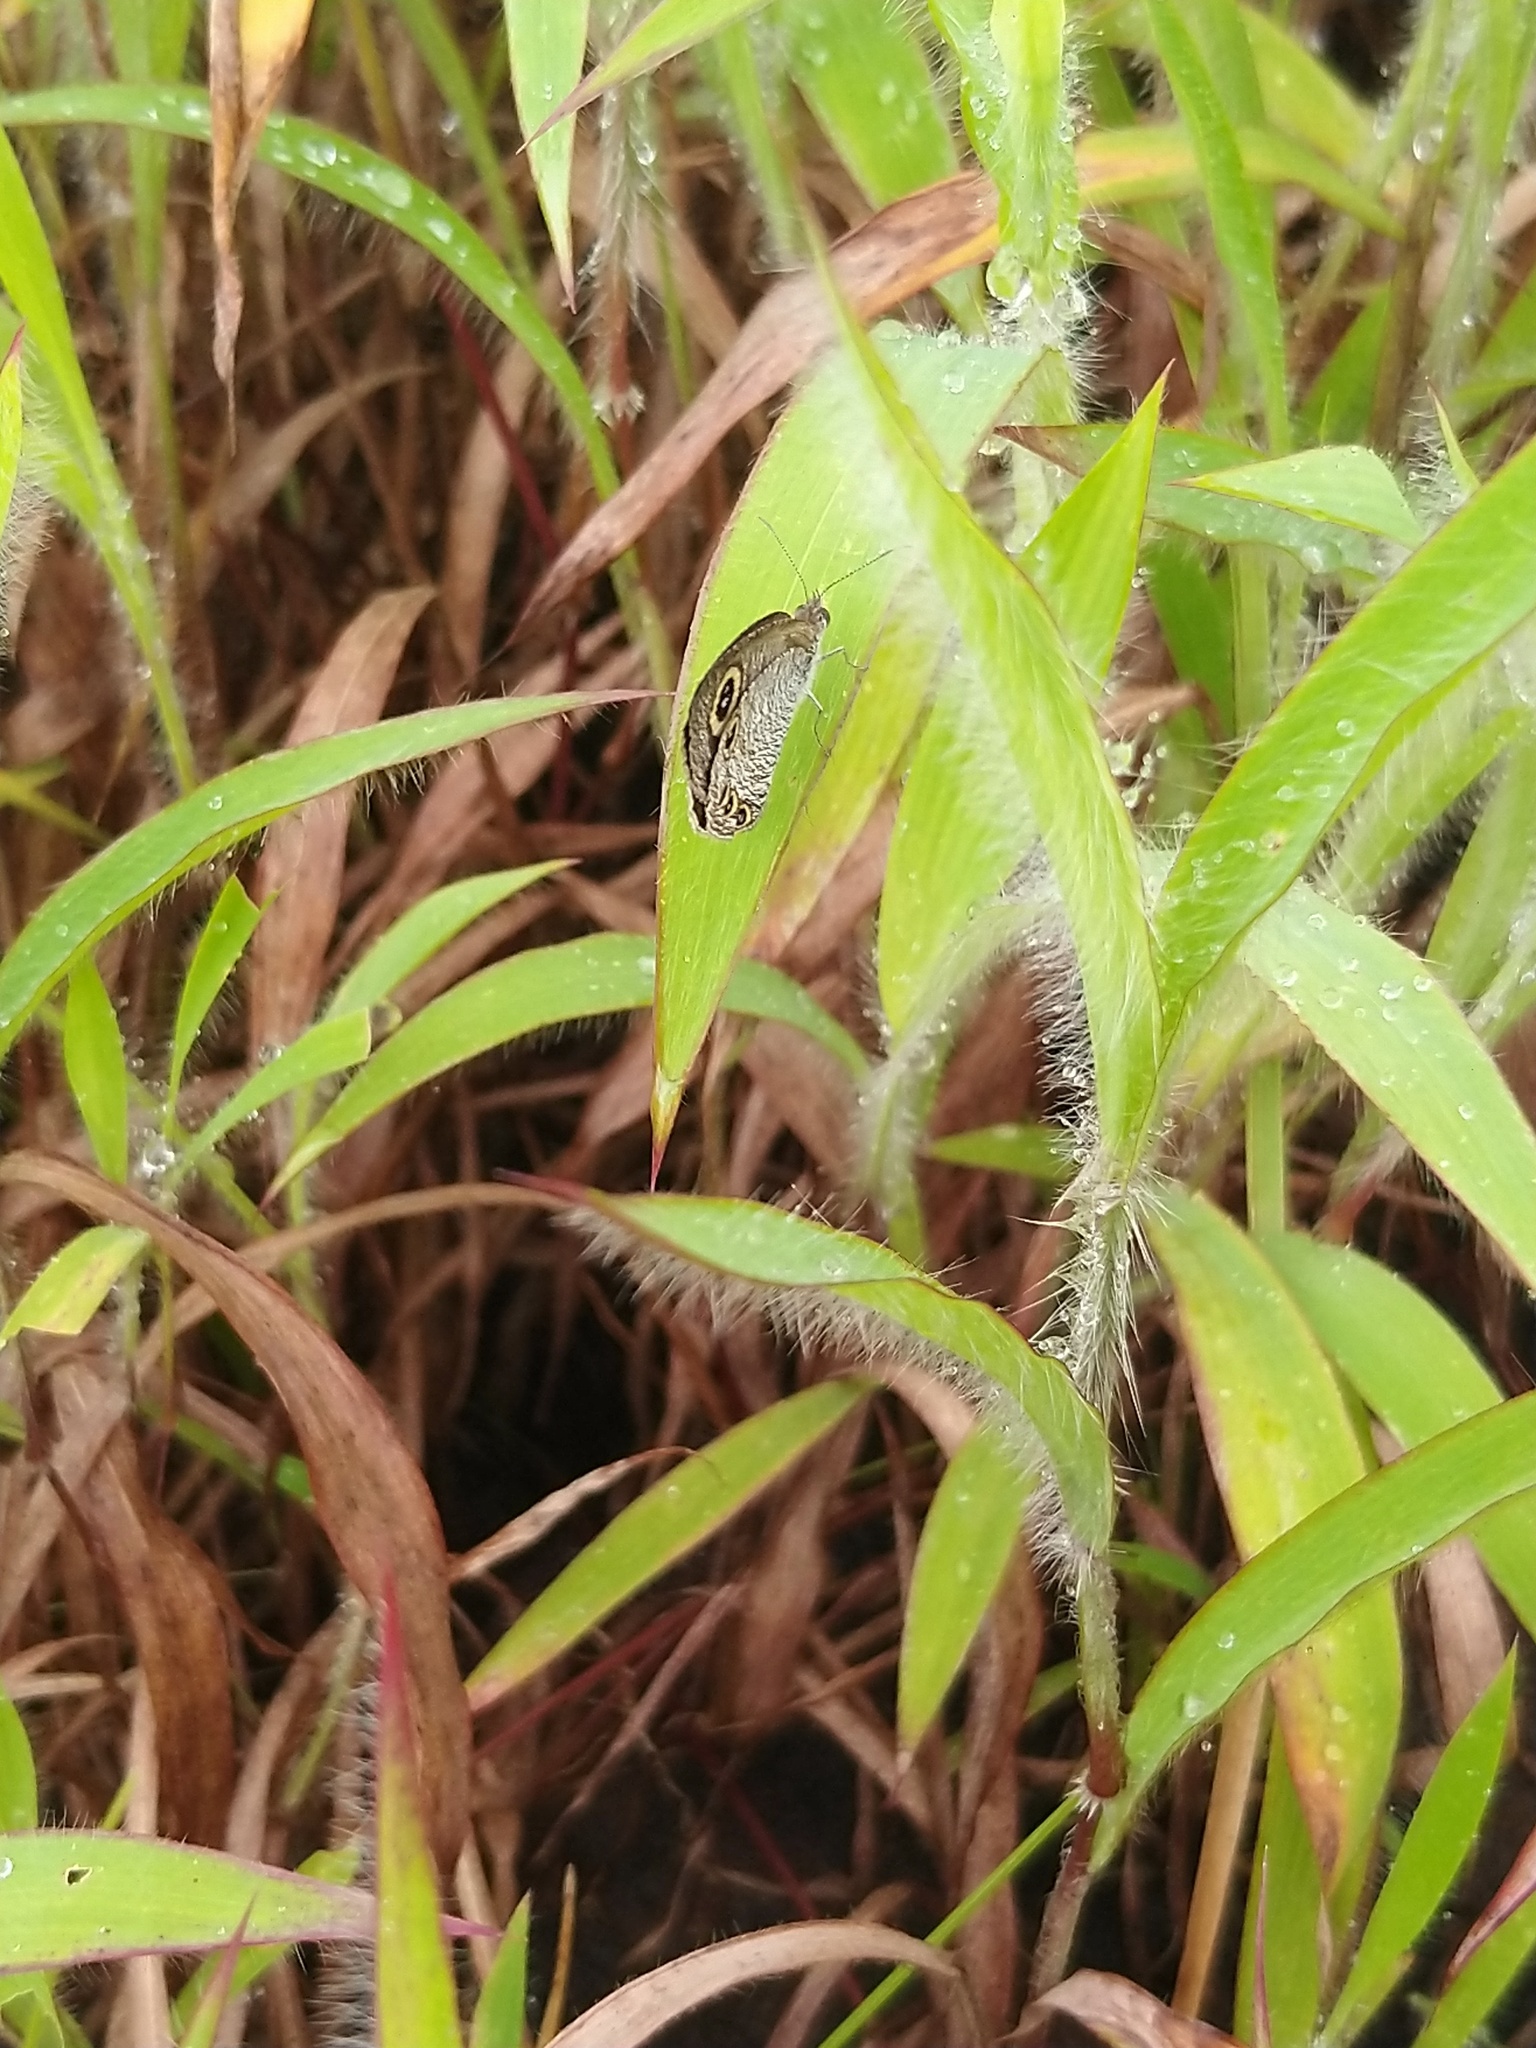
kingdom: Animalia
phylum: Arthropoda
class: Insecta
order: Lepidoptera
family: Nymphalidae
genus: Ypthima
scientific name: Ypthima huebneri
